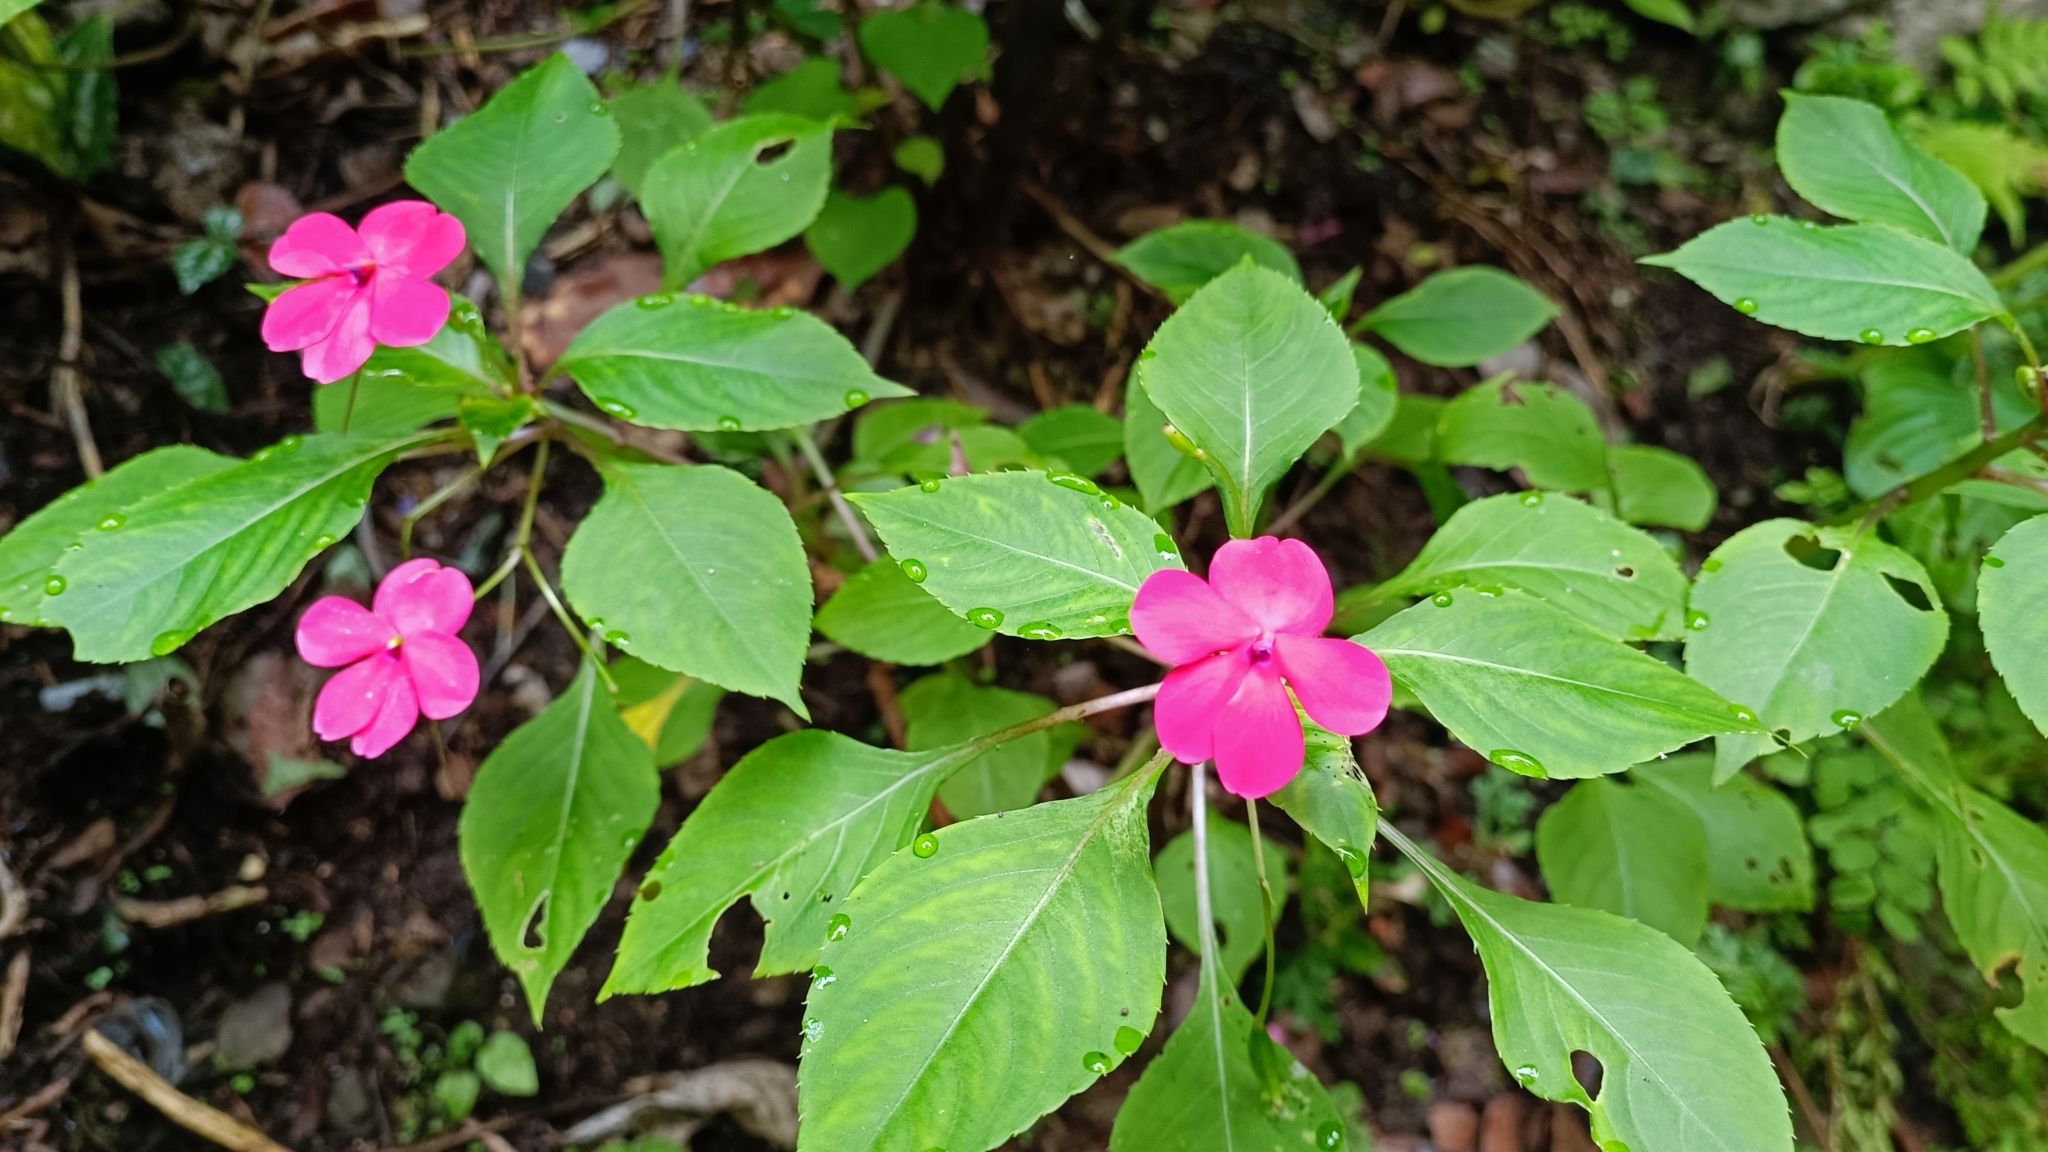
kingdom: Plantae
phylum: Tracheophyta
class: Magnoliopsida
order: Ericales
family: Balsaminaceae
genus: Impatiens
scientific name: Impatiens walleriana
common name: Buzzy lizzy
